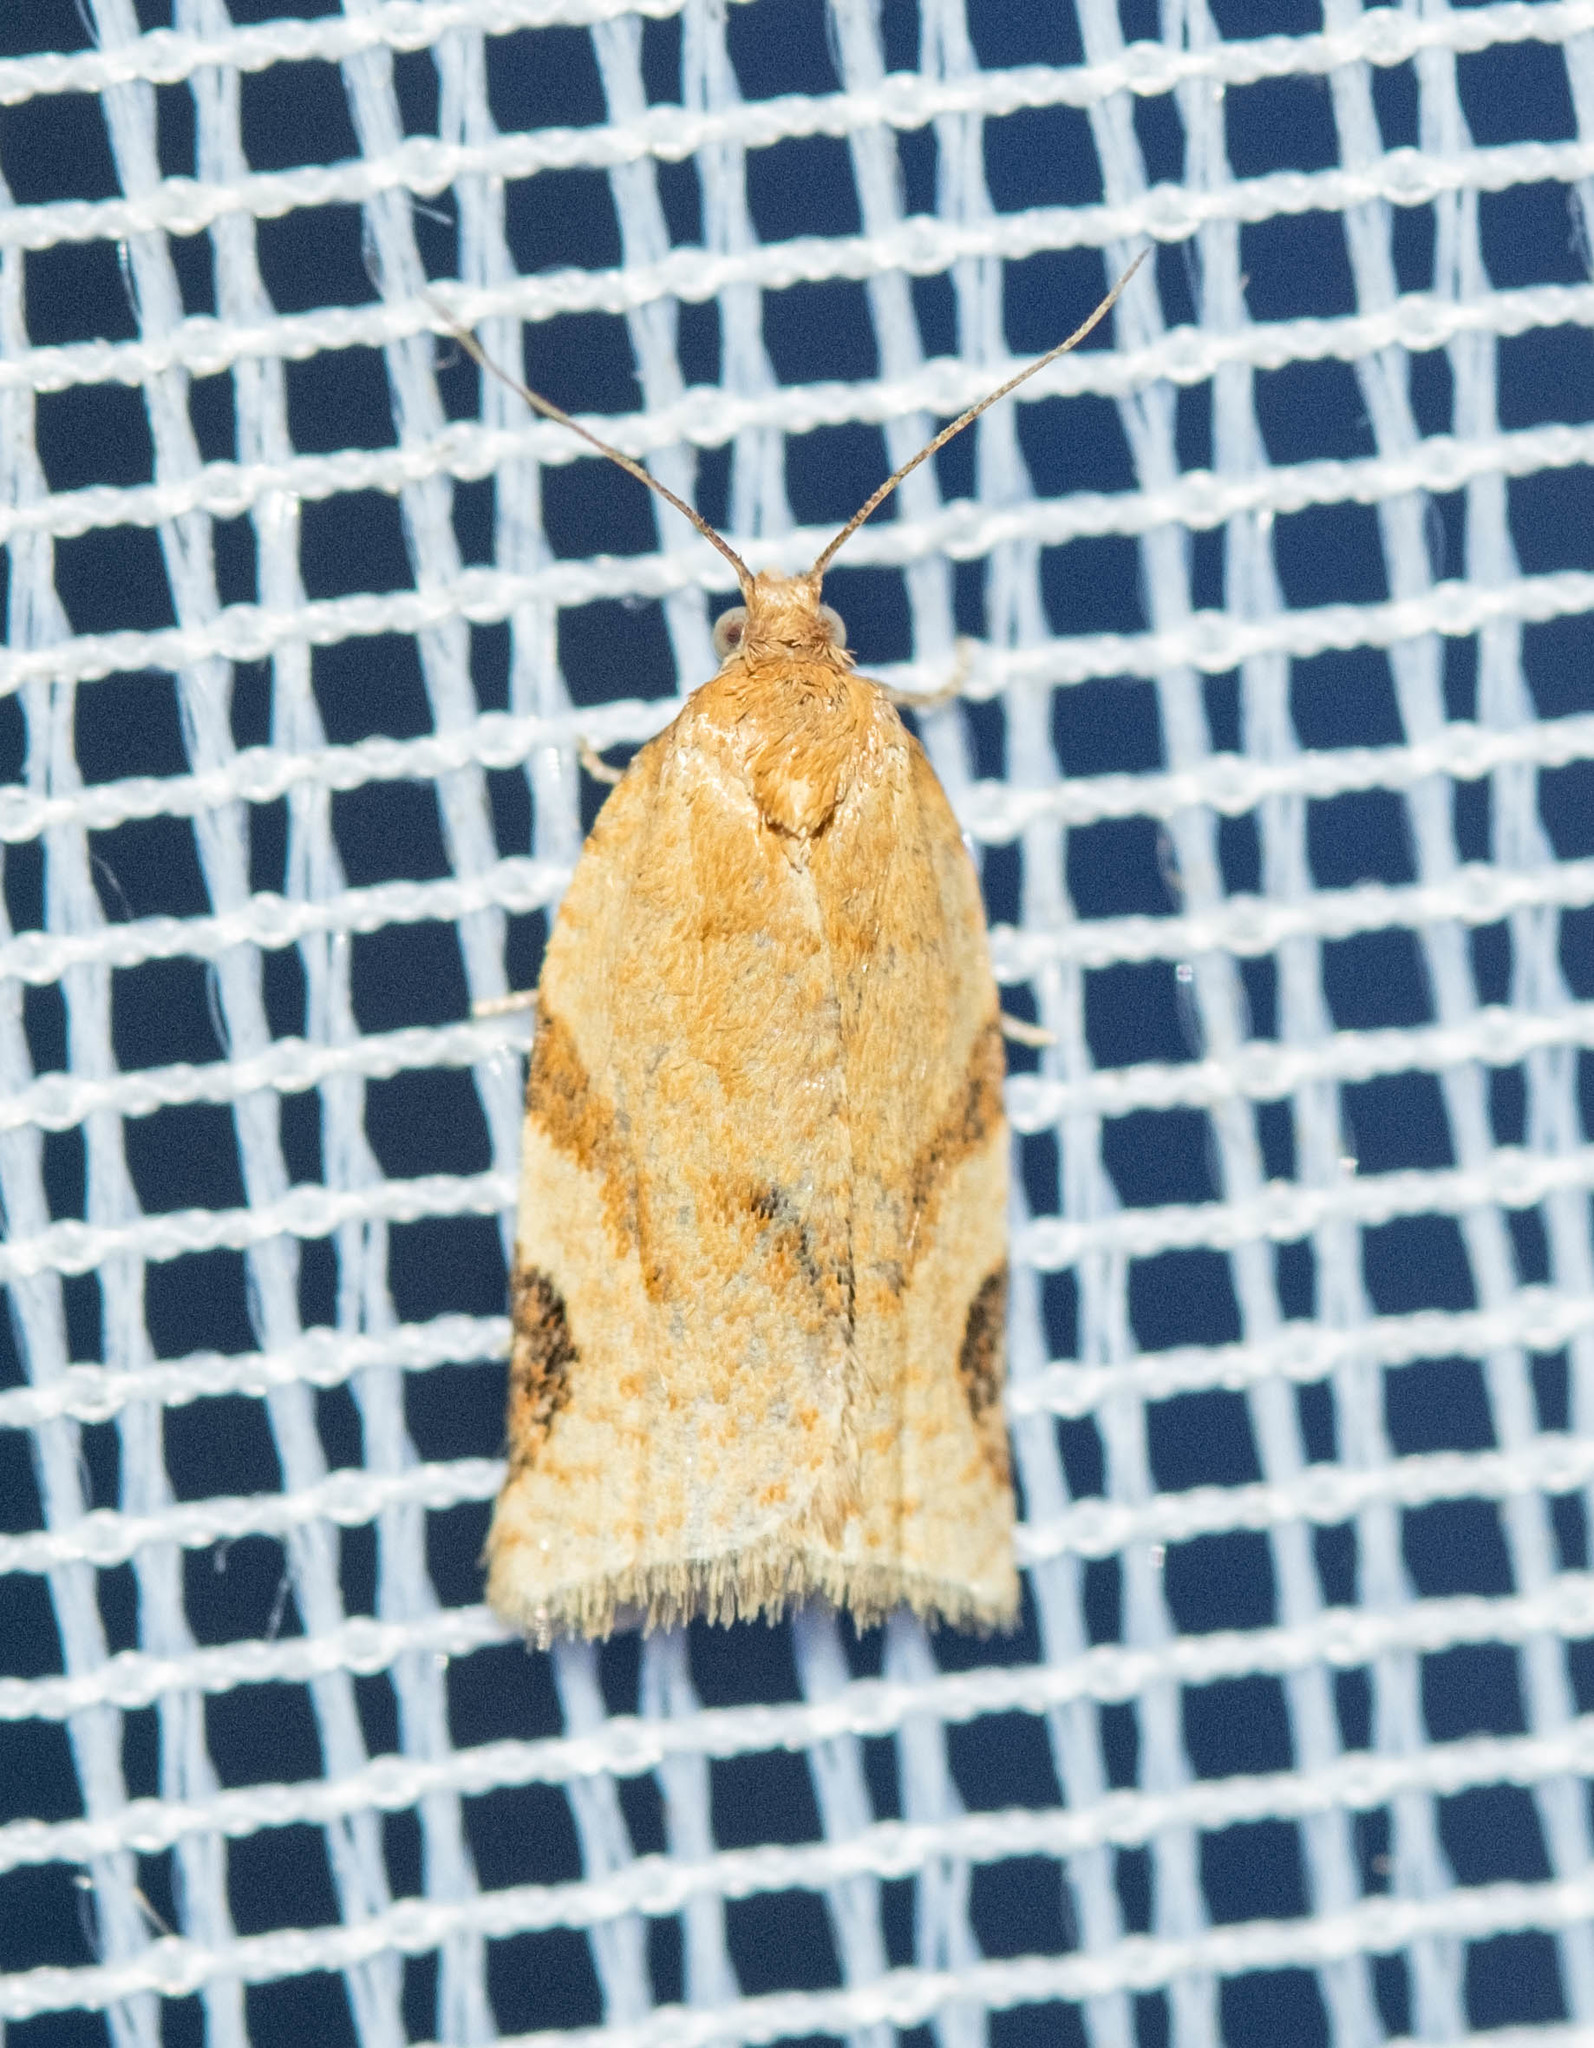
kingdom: Animalia
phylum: Arthropoda
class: Insecta
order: Lepidoptera
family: Tortricidae
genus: Paramesia
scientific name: Paramesia gnomana
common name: Small straw twist
